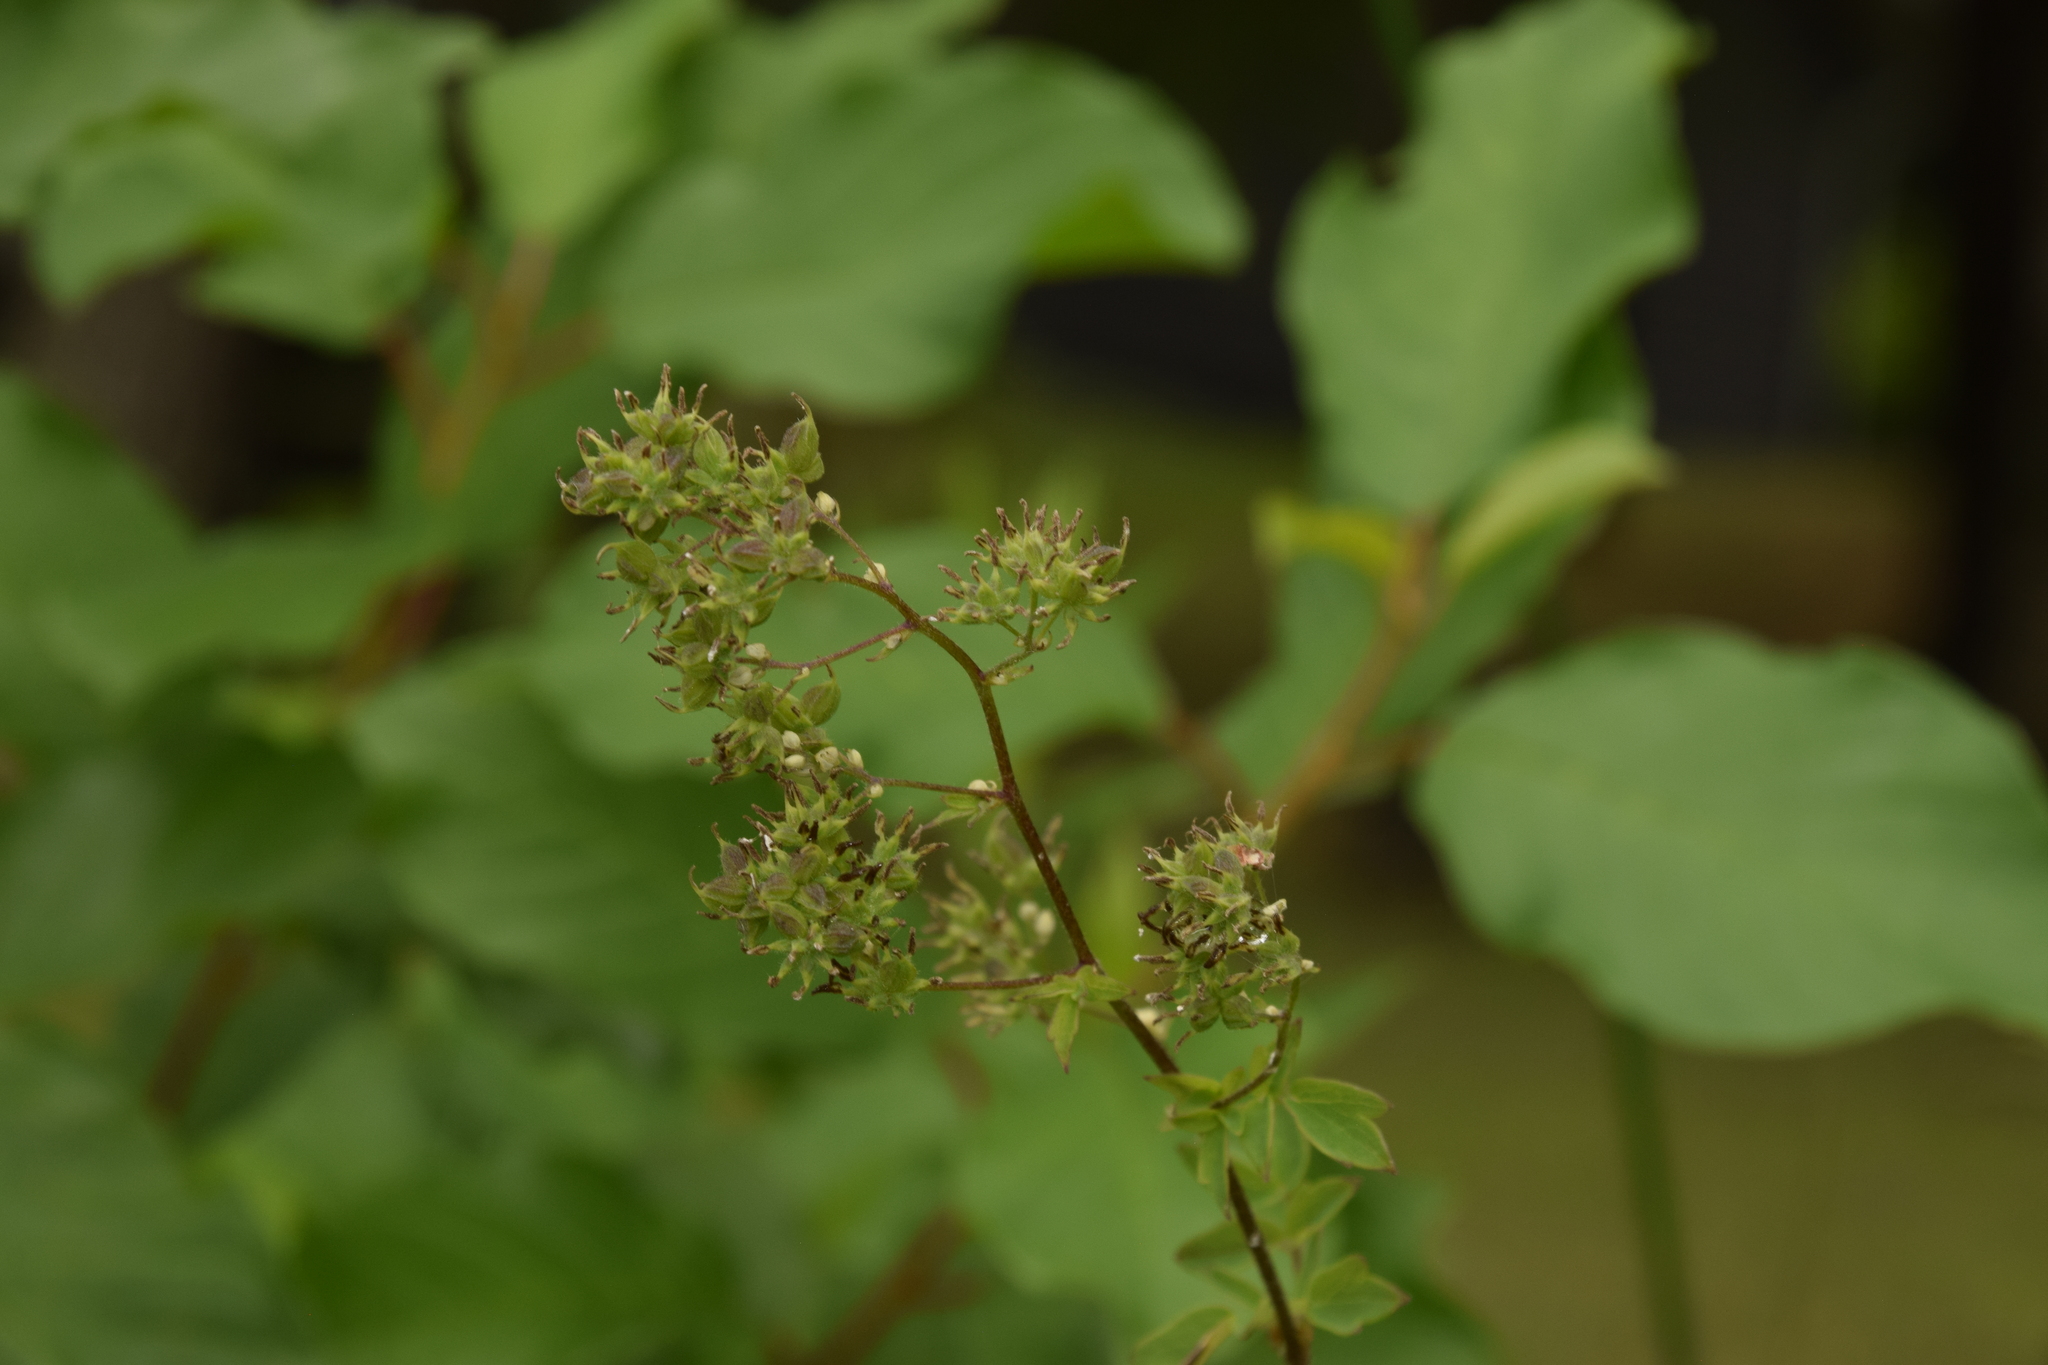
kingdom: Plantae
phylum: Tracheophyta
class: Magnoliopsida
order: Ranunculales
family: Ranunculaceae
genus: Thalictrum
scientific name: Thalictrum dasycarpum
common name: Purple meadow-rue
